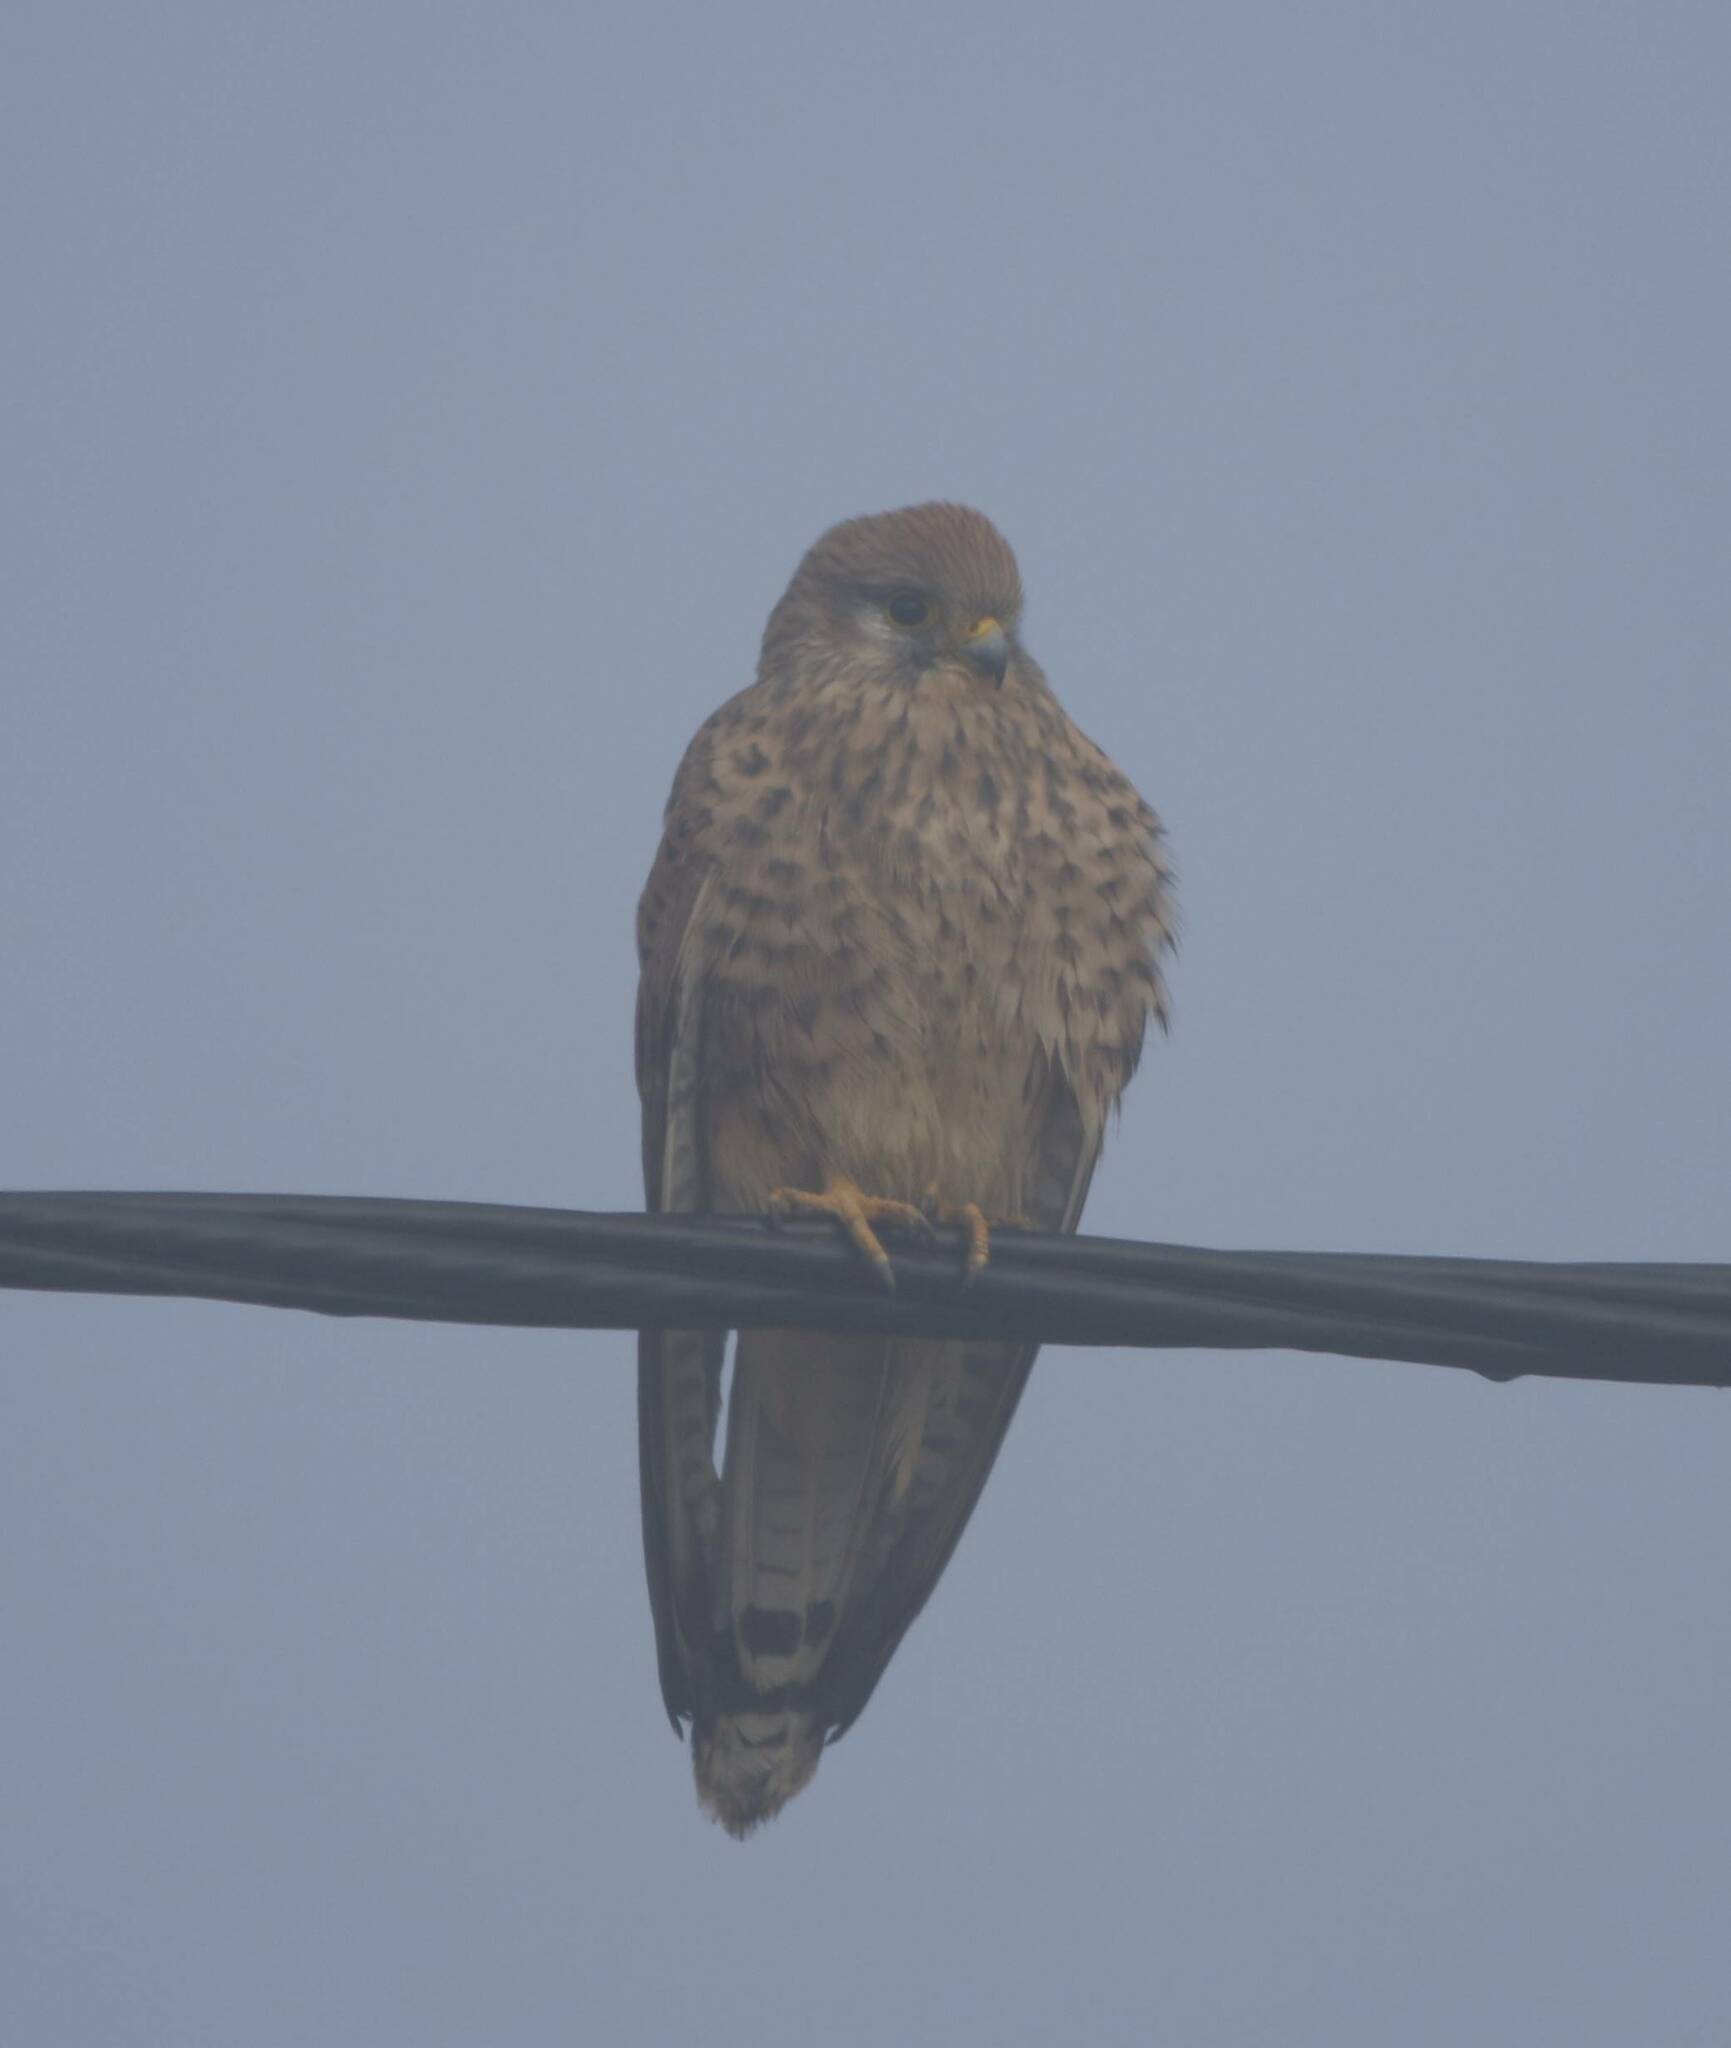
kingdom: Animalia
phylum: Chordata
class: Aves
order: Falconiformes
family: Falconidae
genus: Falco
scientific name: Falco tinnunculus
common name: Common kestrel
